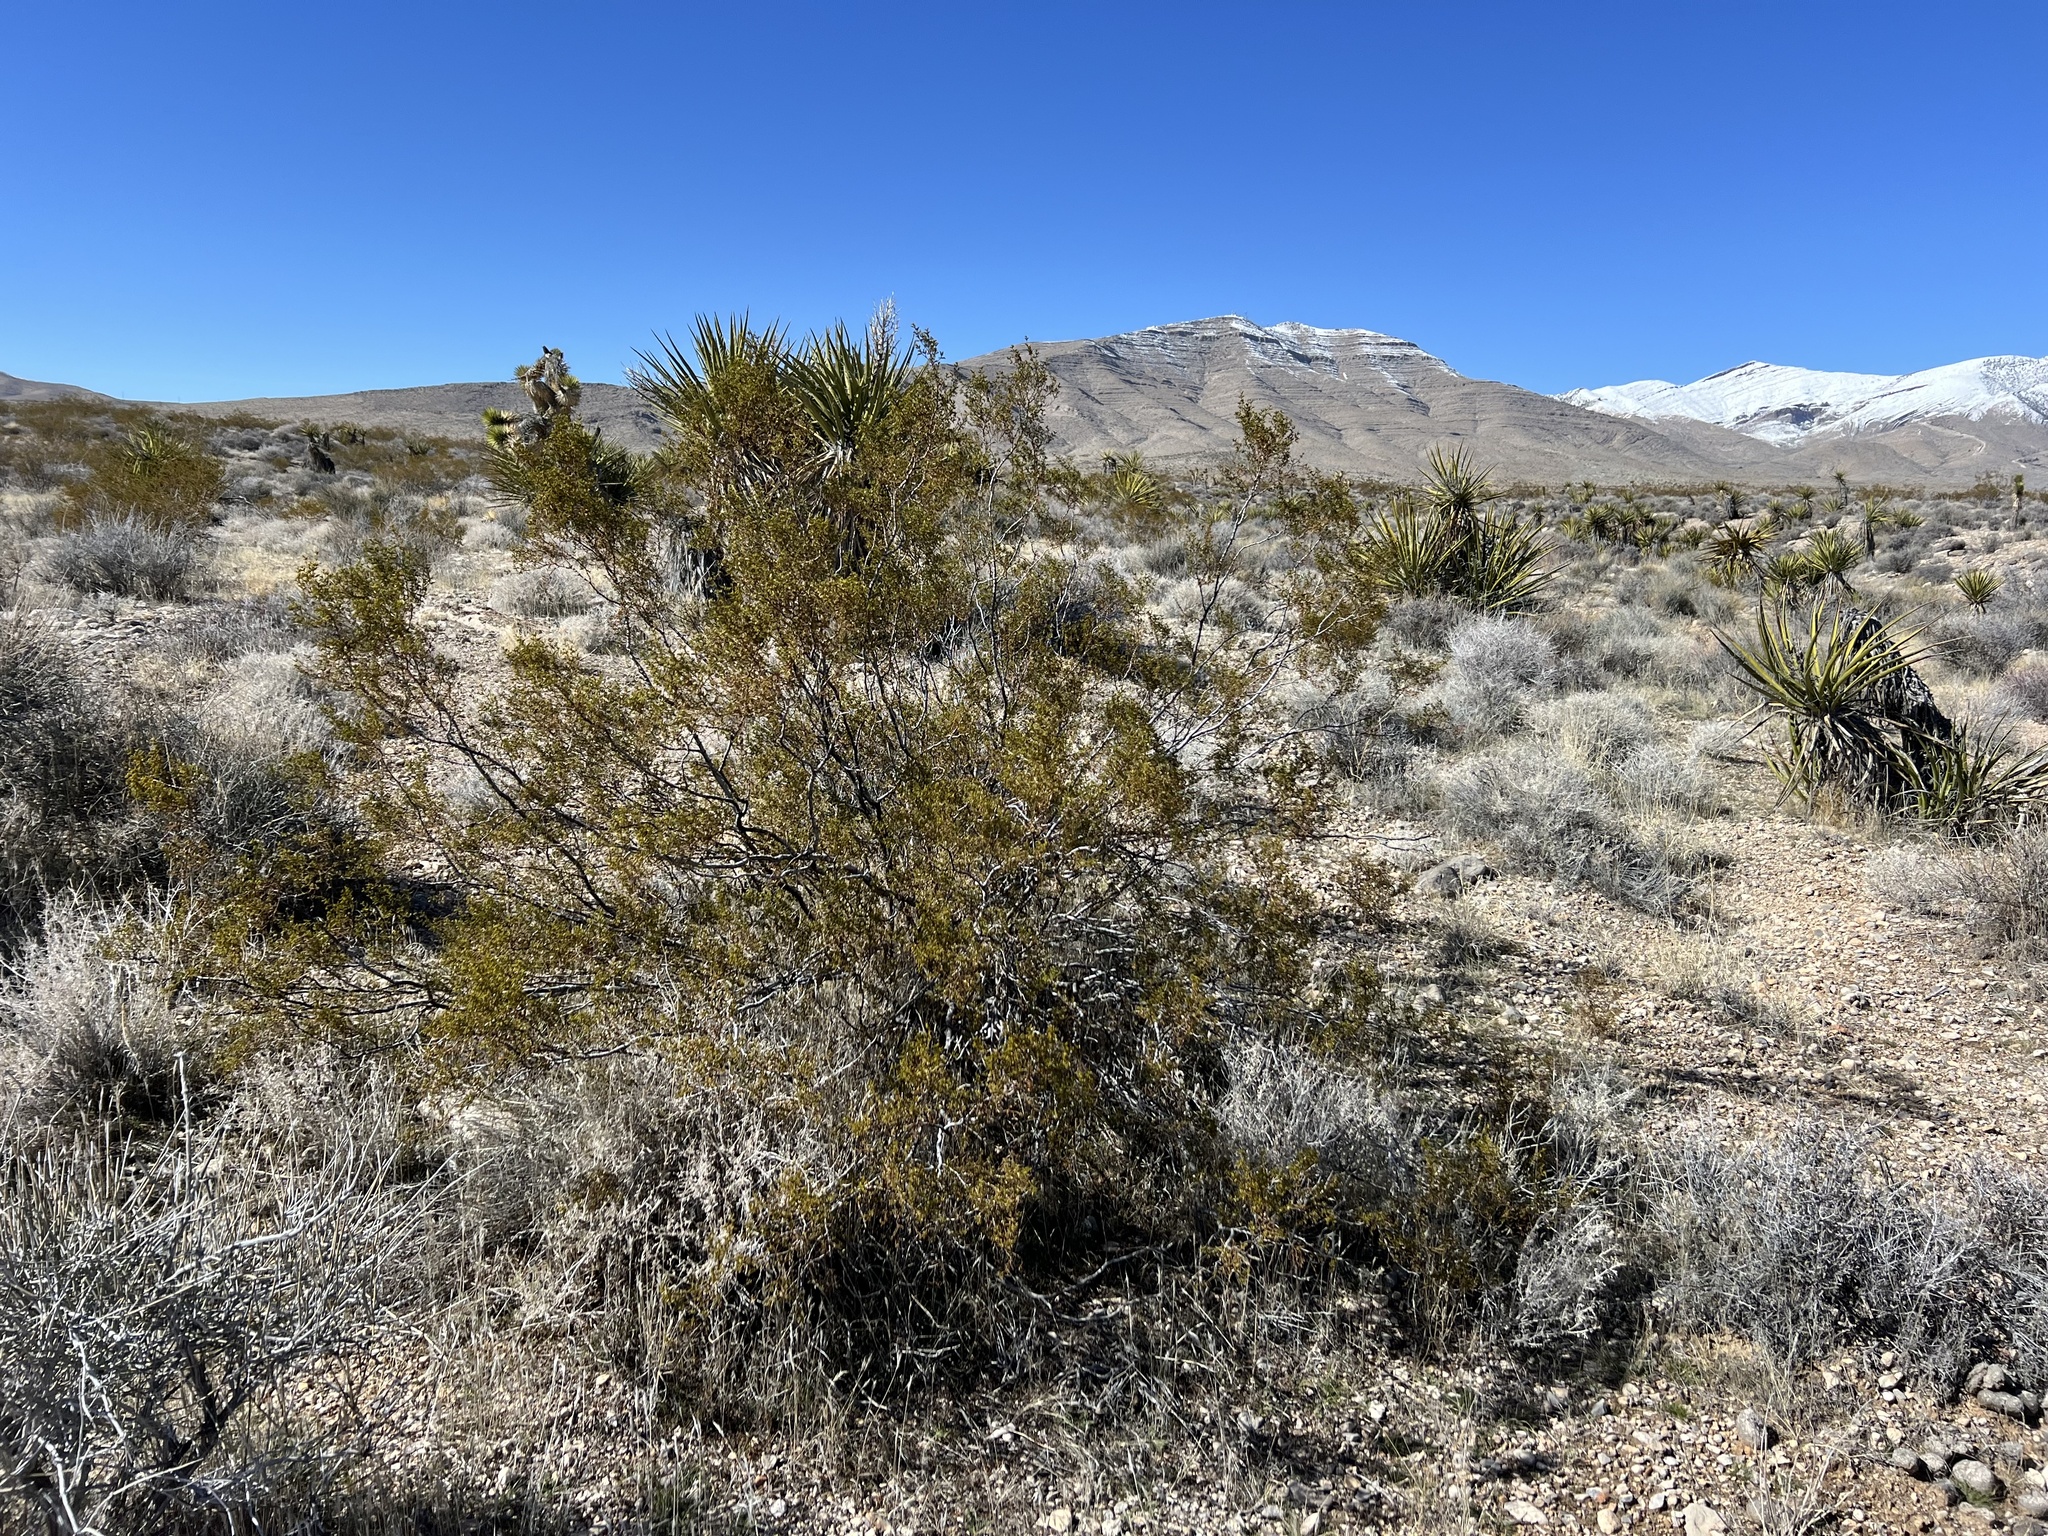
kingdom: Plantae
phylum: Tracheophyta
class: Magnoliopsida
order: Zygophyllales
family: Zygophyllaceae
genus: Larrea
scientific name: Larrea tridentata
